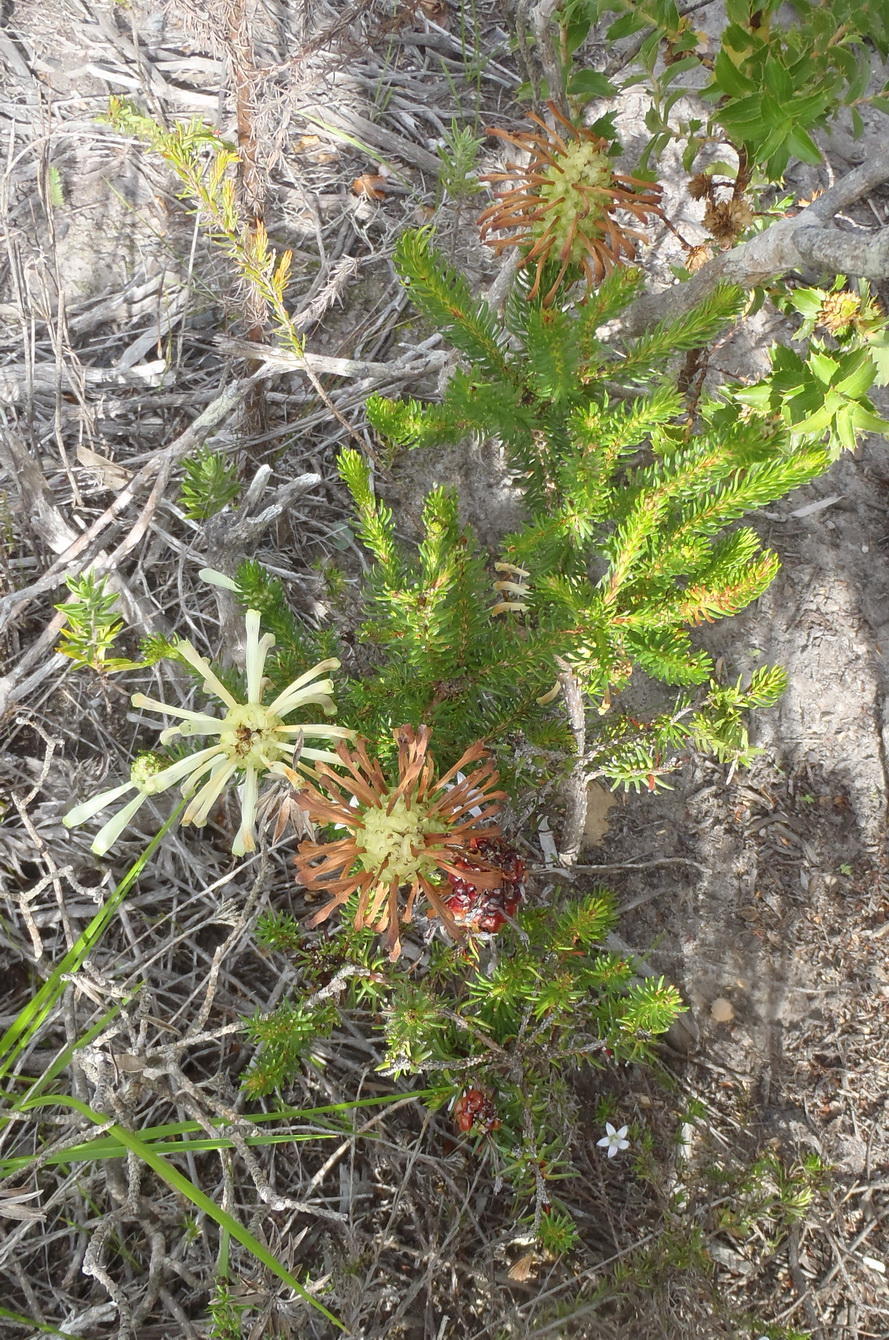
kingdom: Plantae
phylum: Tracheophyta
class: Magnoliopsida
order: Ericales
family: Ericaceae
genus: Erica
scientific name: Erica sessiliflora
